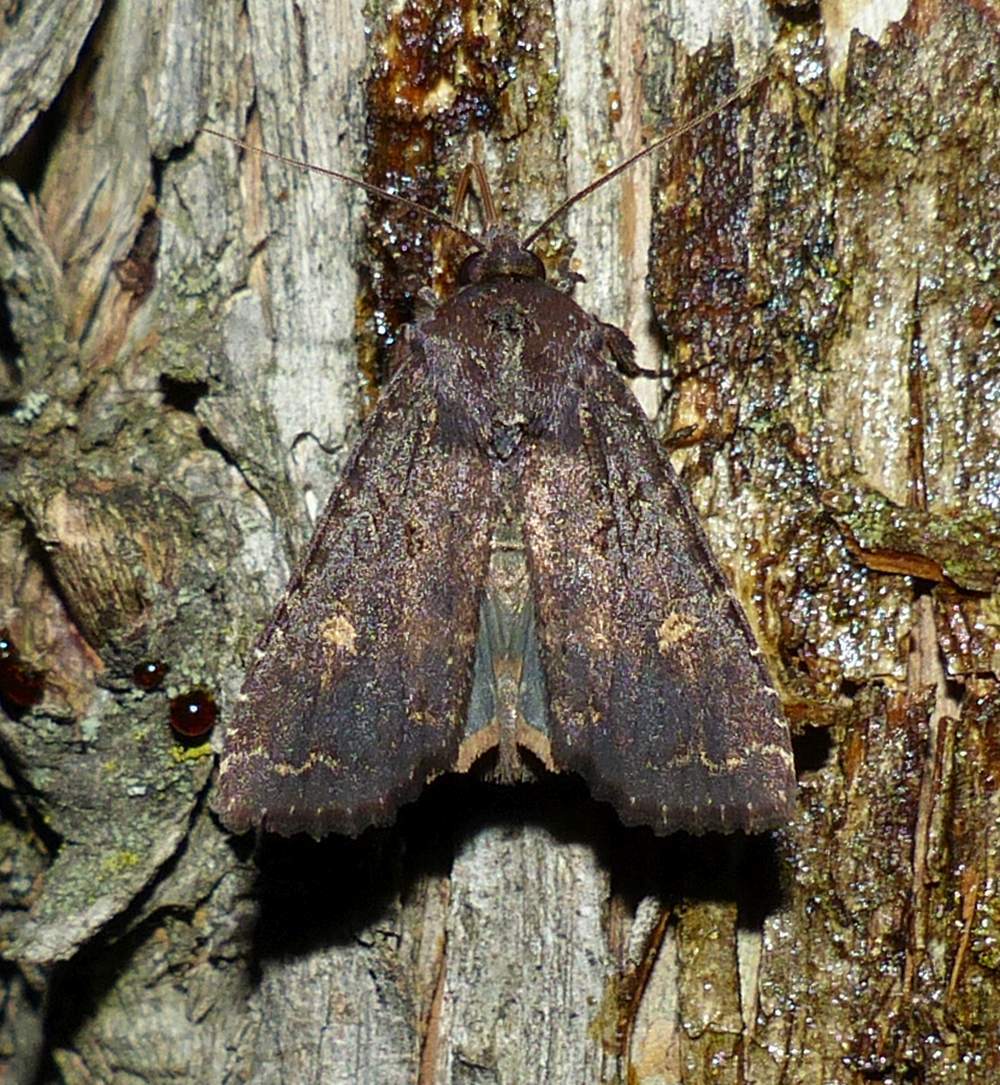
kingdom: Animalia
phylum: Arthropoda
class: Insecta
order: Lepidoptera
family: Noctuidae
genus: Apamea
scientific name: Apamea dubitans
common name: Doubtful apamea moth
